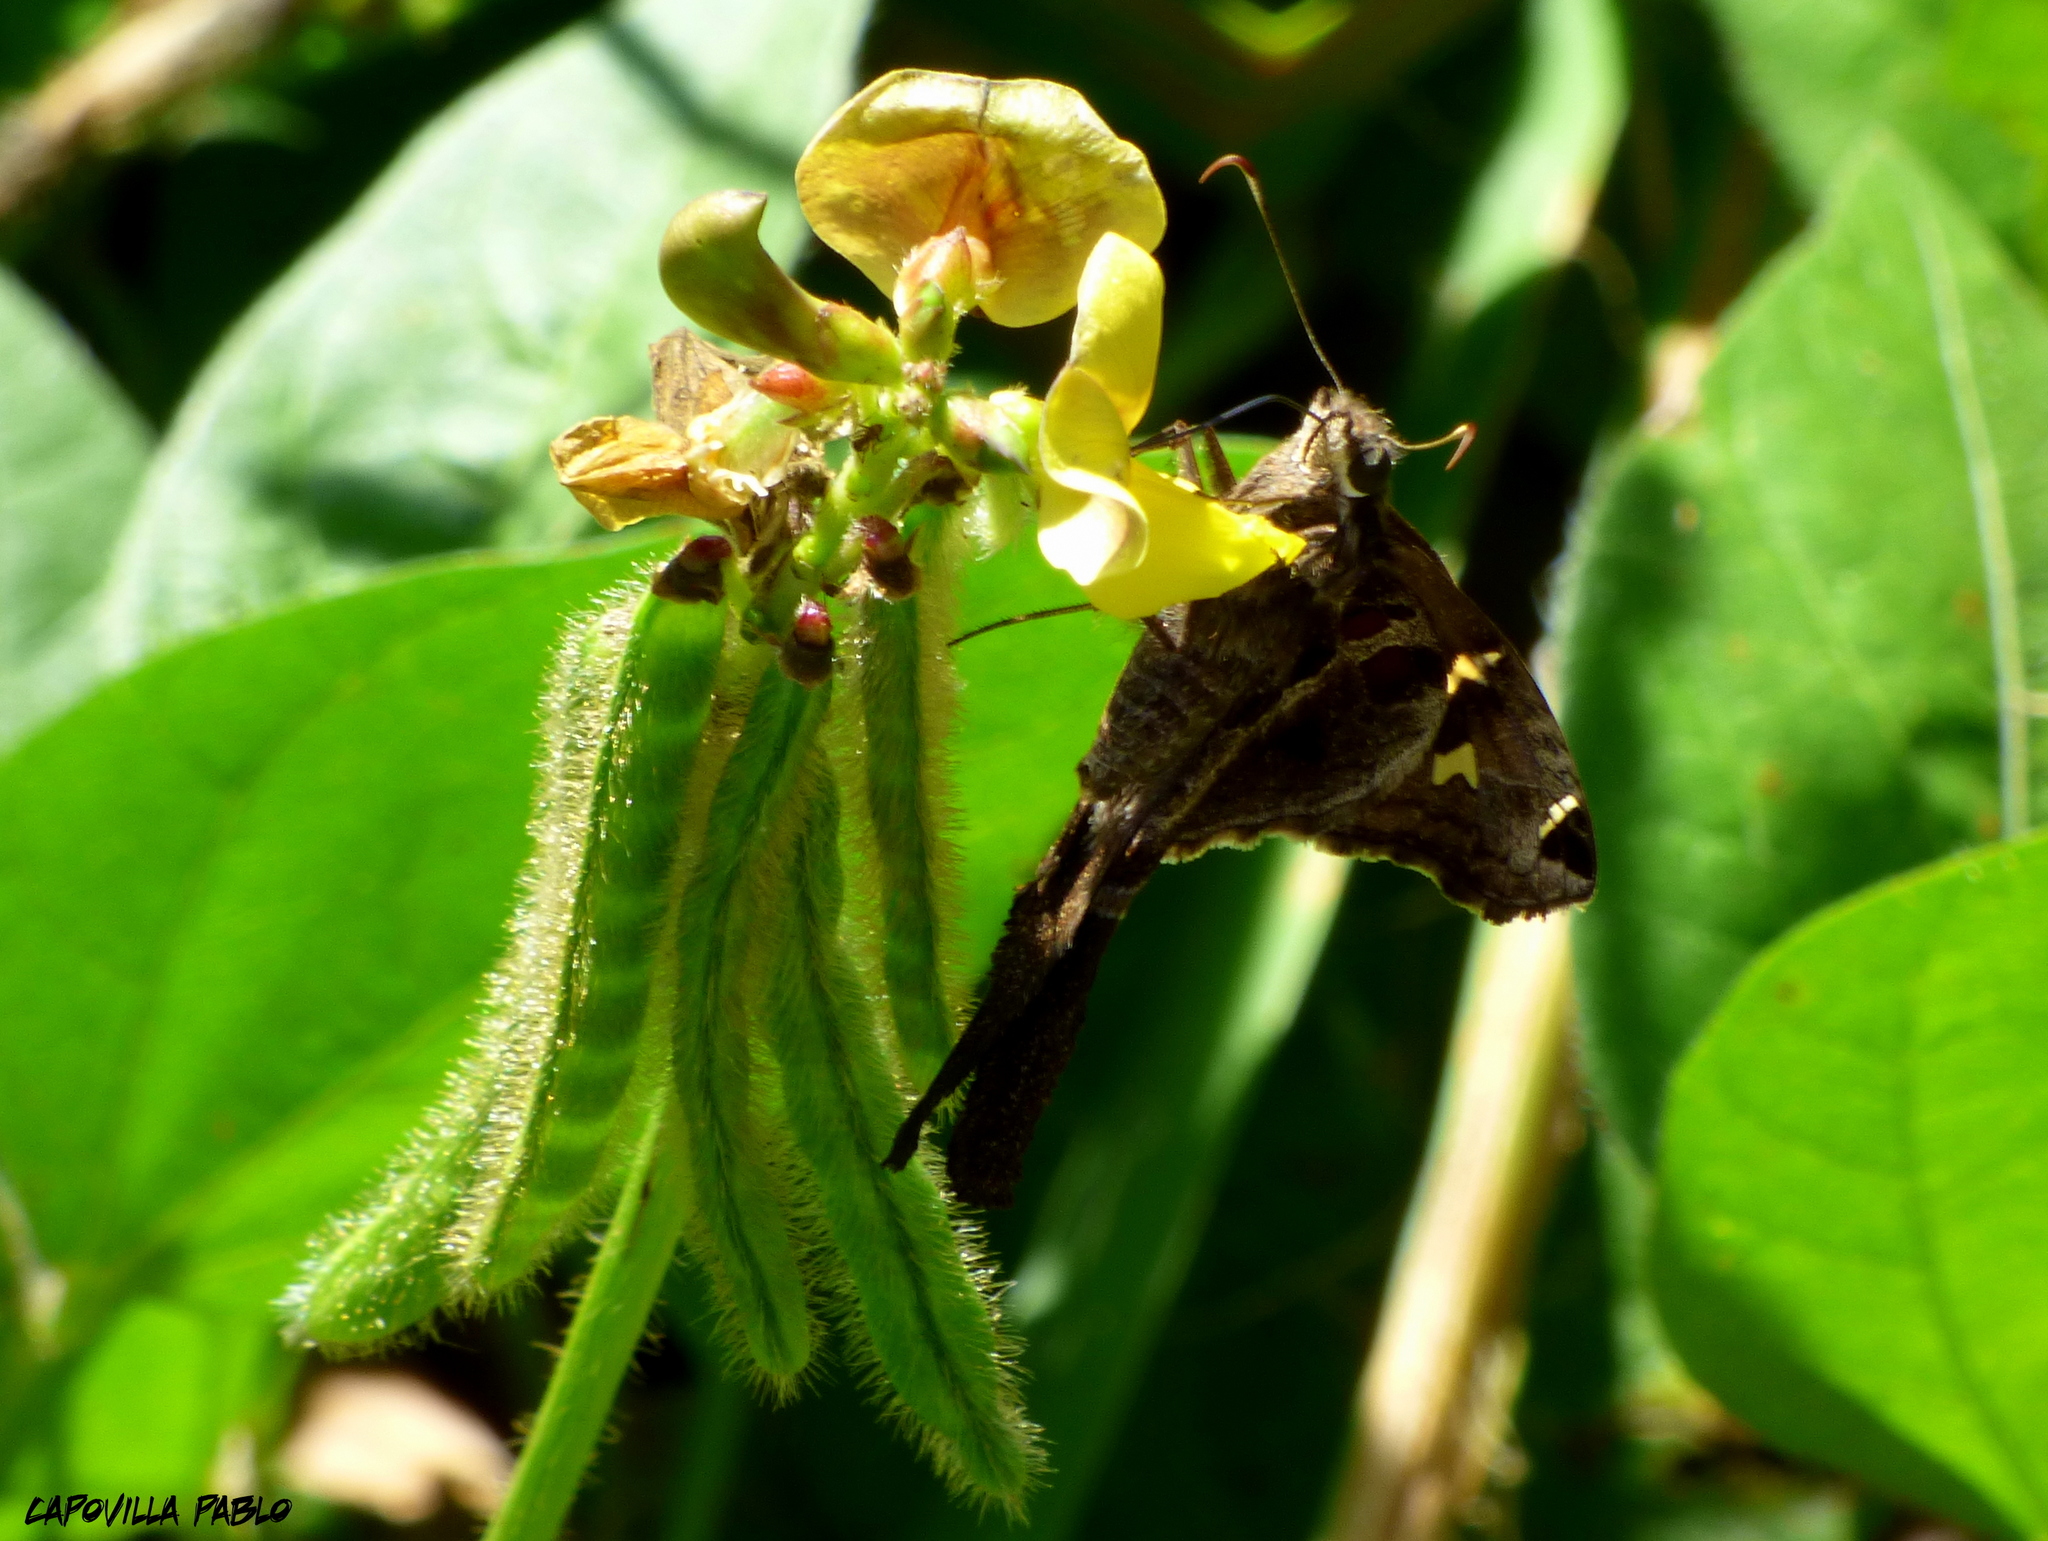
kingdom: Animalia
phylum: Arthropoda
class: Insecta
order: Lepidoptera
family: Hesperiidae
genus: Chioides
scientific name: Chioides catillus
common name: Silverbanded skipper
